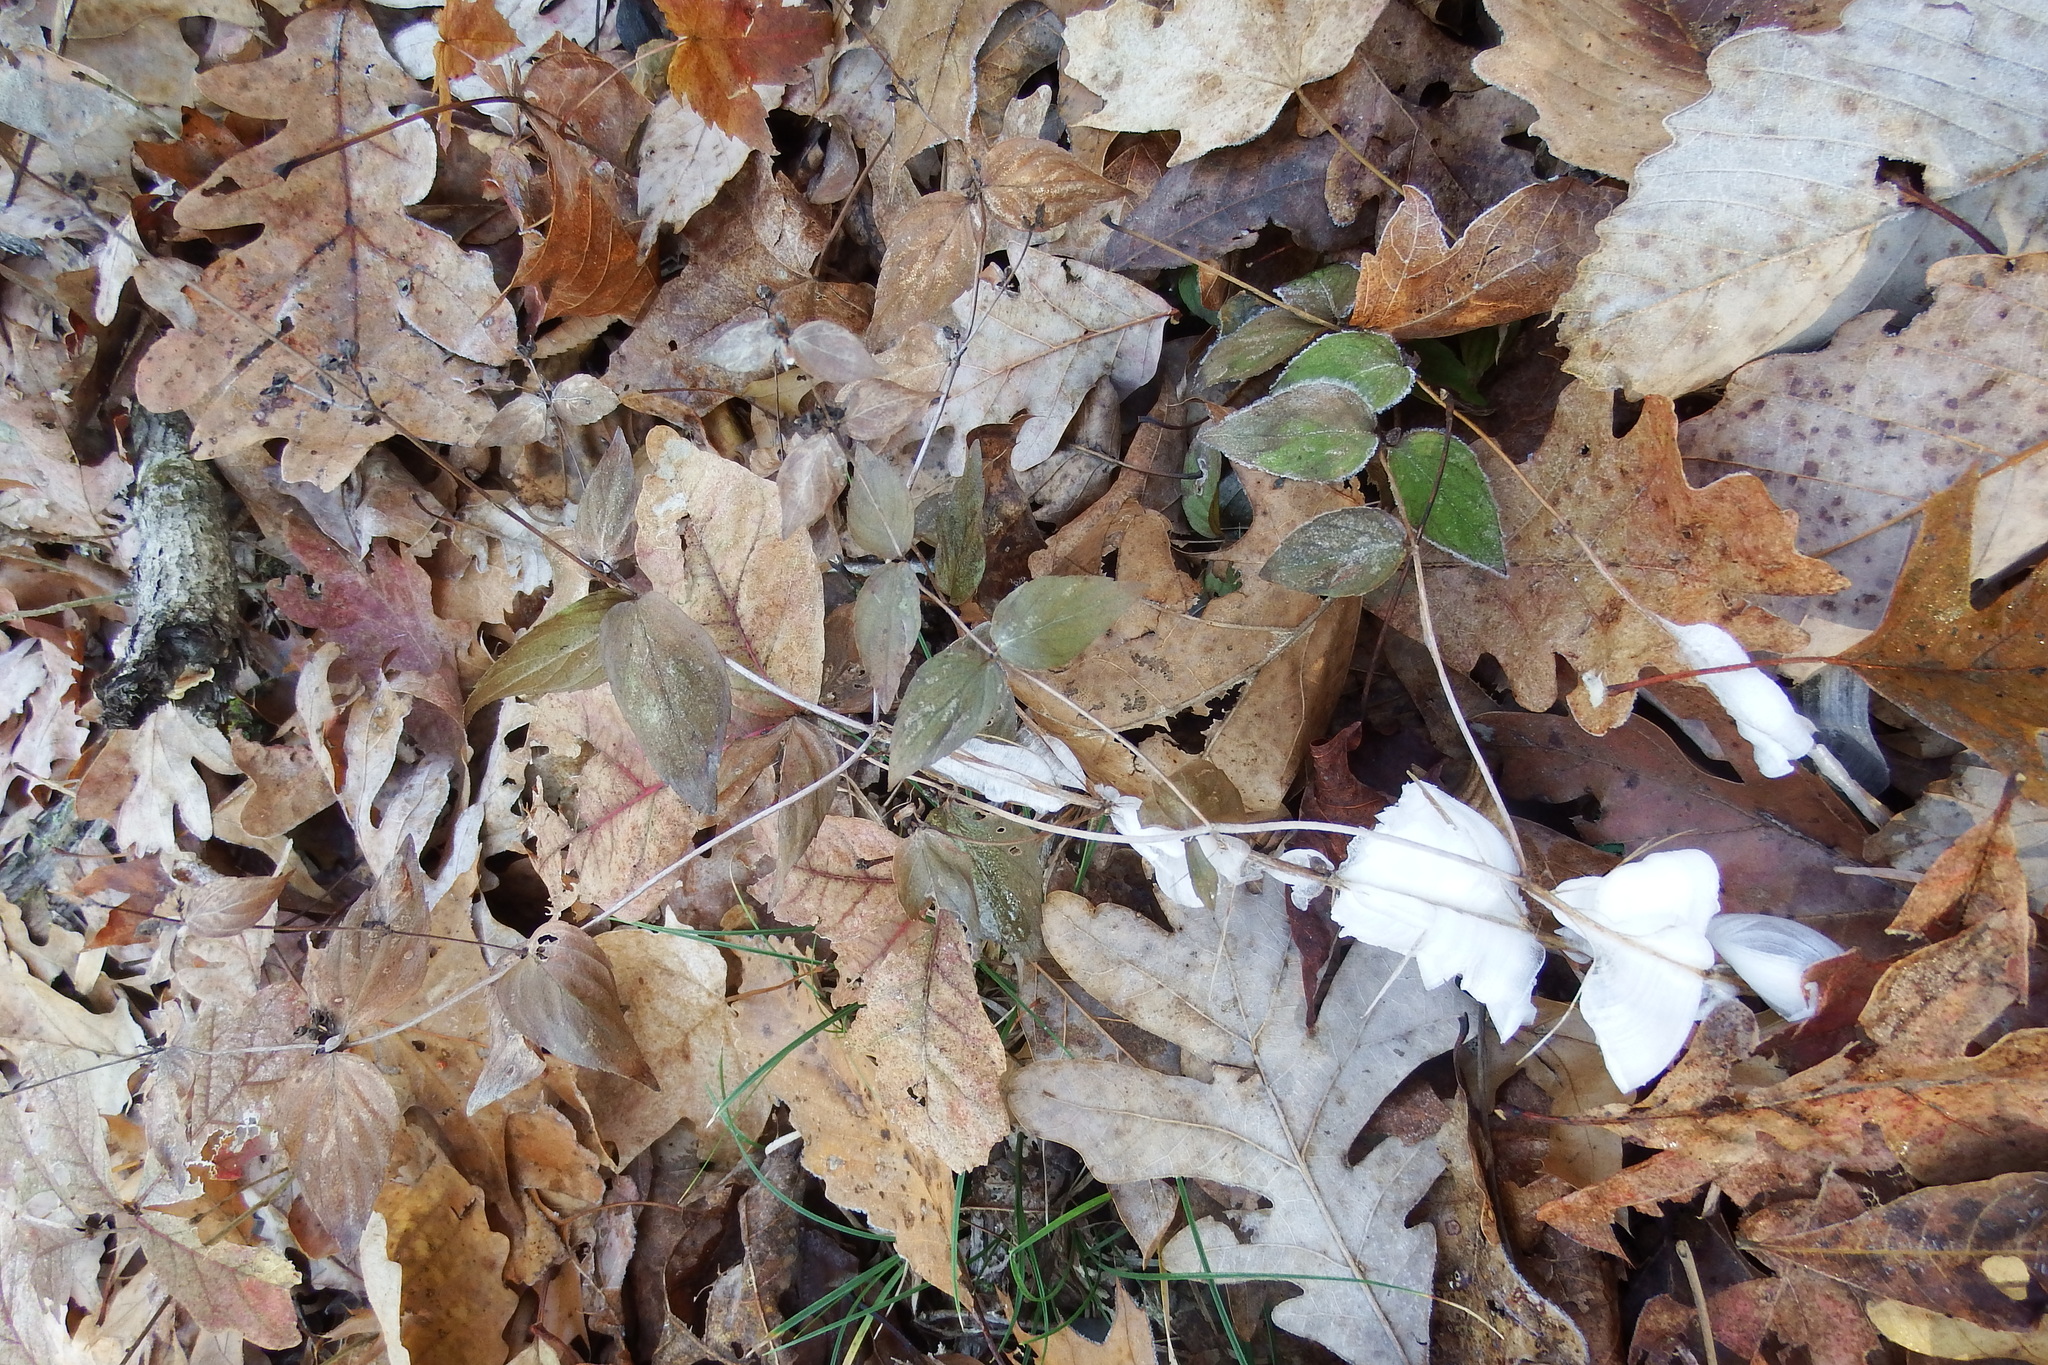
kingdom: Plantae
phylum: Tracheophyta
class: Magnoliopsida
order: Lamiales
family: Lamiaceae
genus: Cunila
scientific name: Cunila origanoides
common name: American dittany
